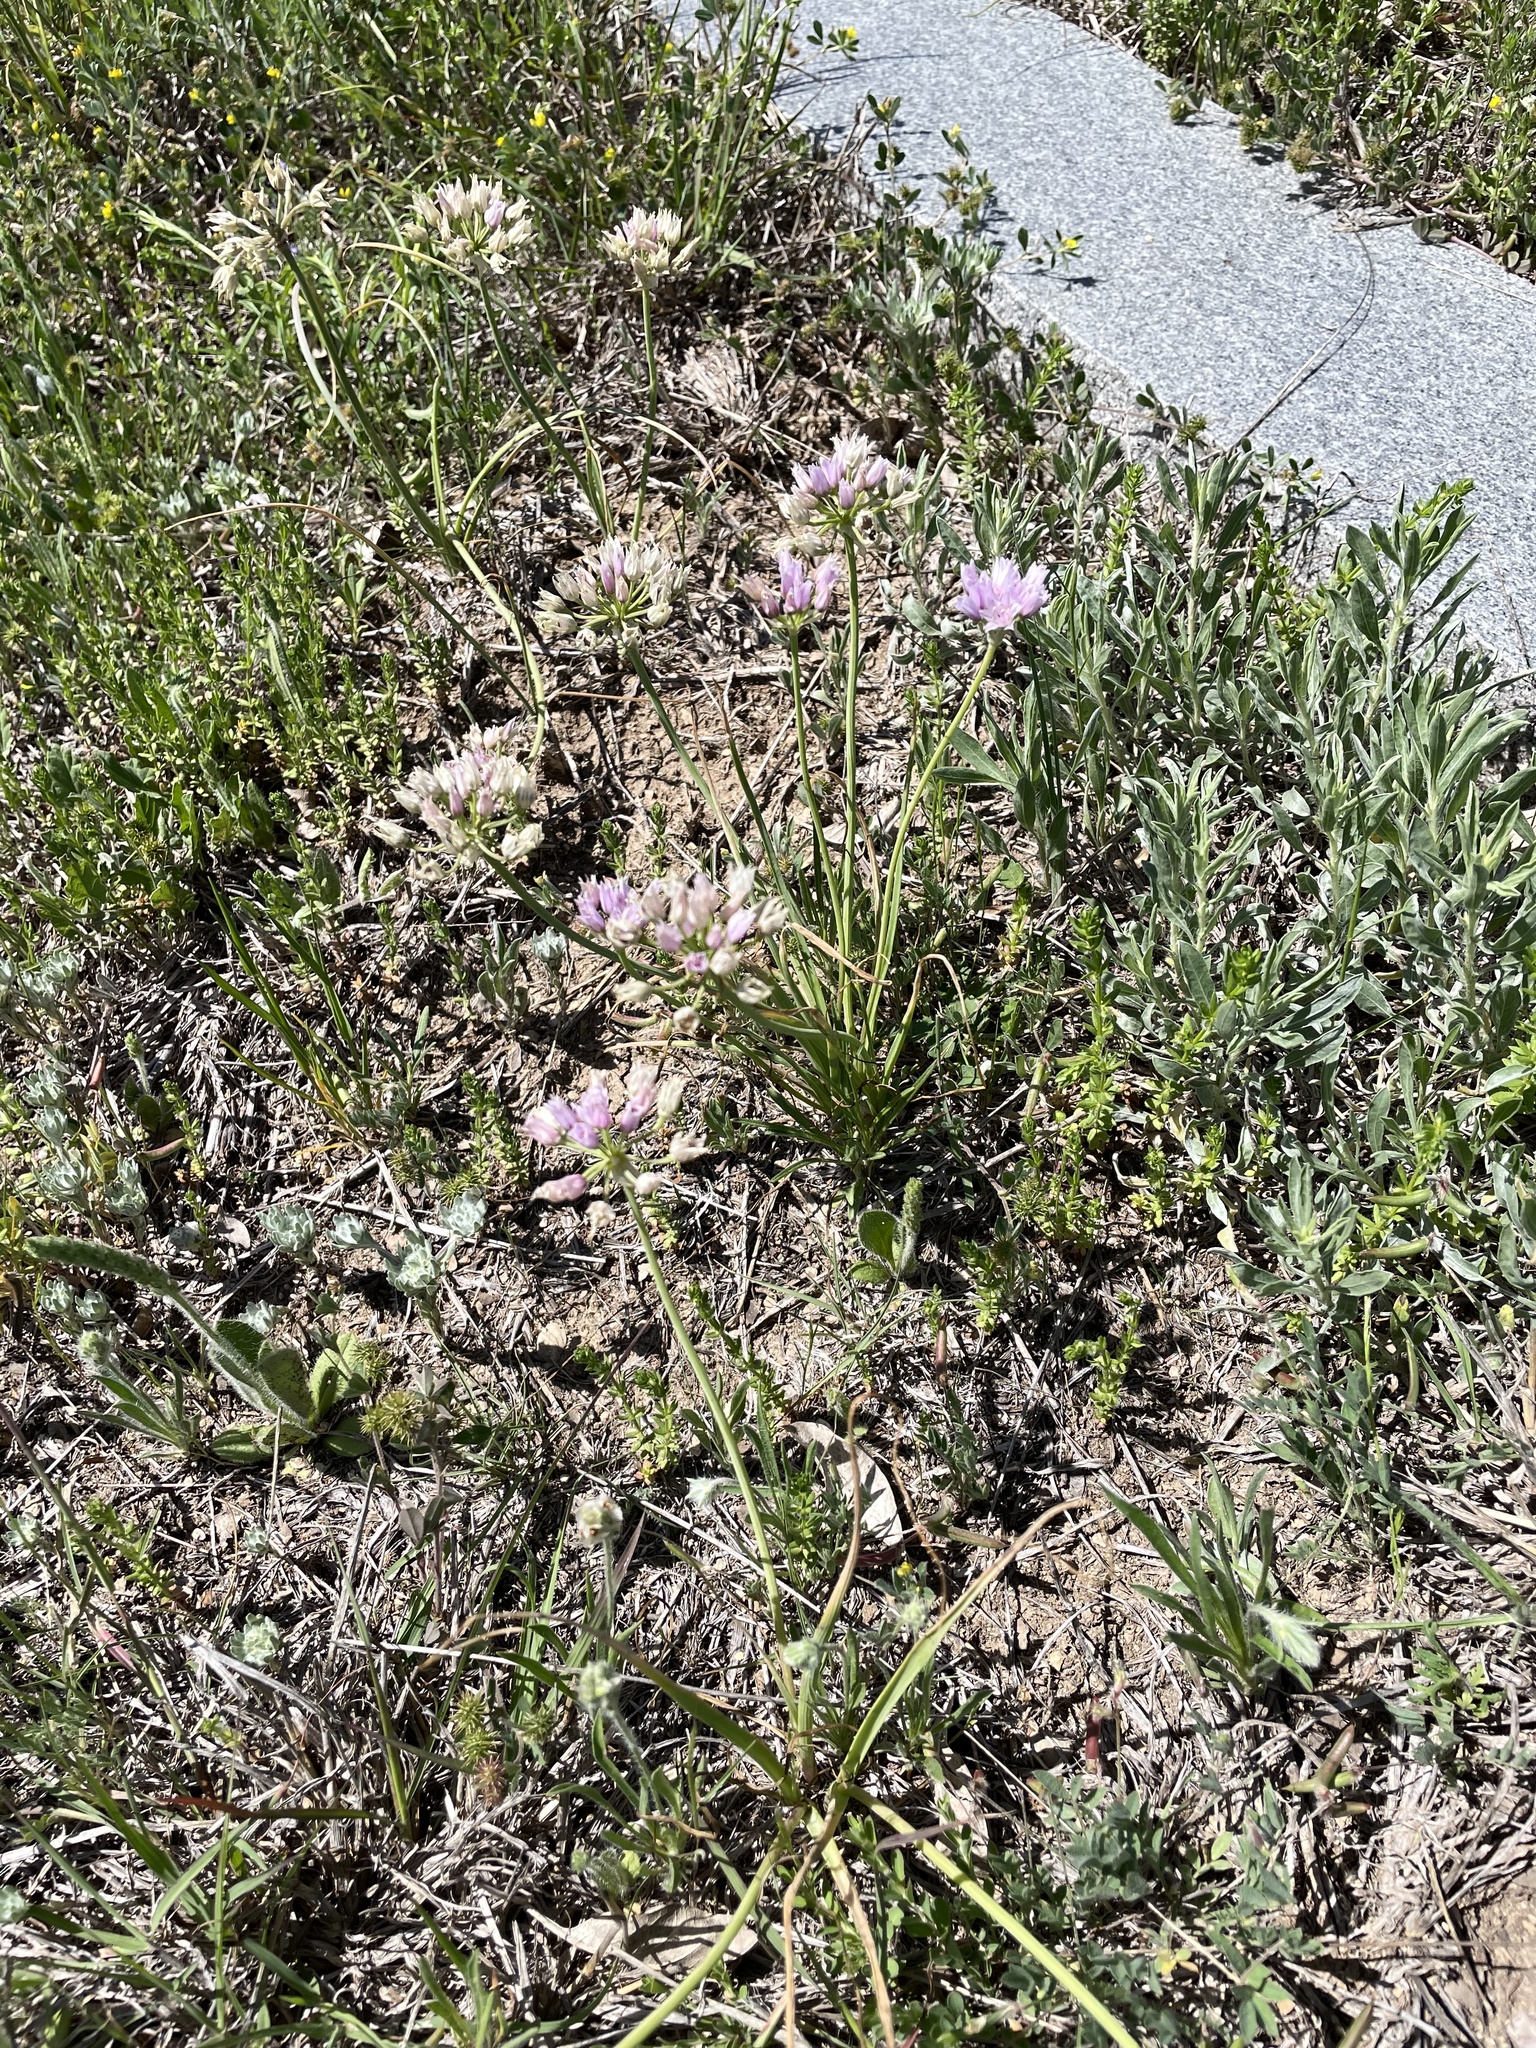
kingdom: Plantae
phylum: Tracheophyta
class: Liliopsida
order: Asparagales
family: Amaryllidaceae
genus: Allium
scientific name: Allium drummondii
